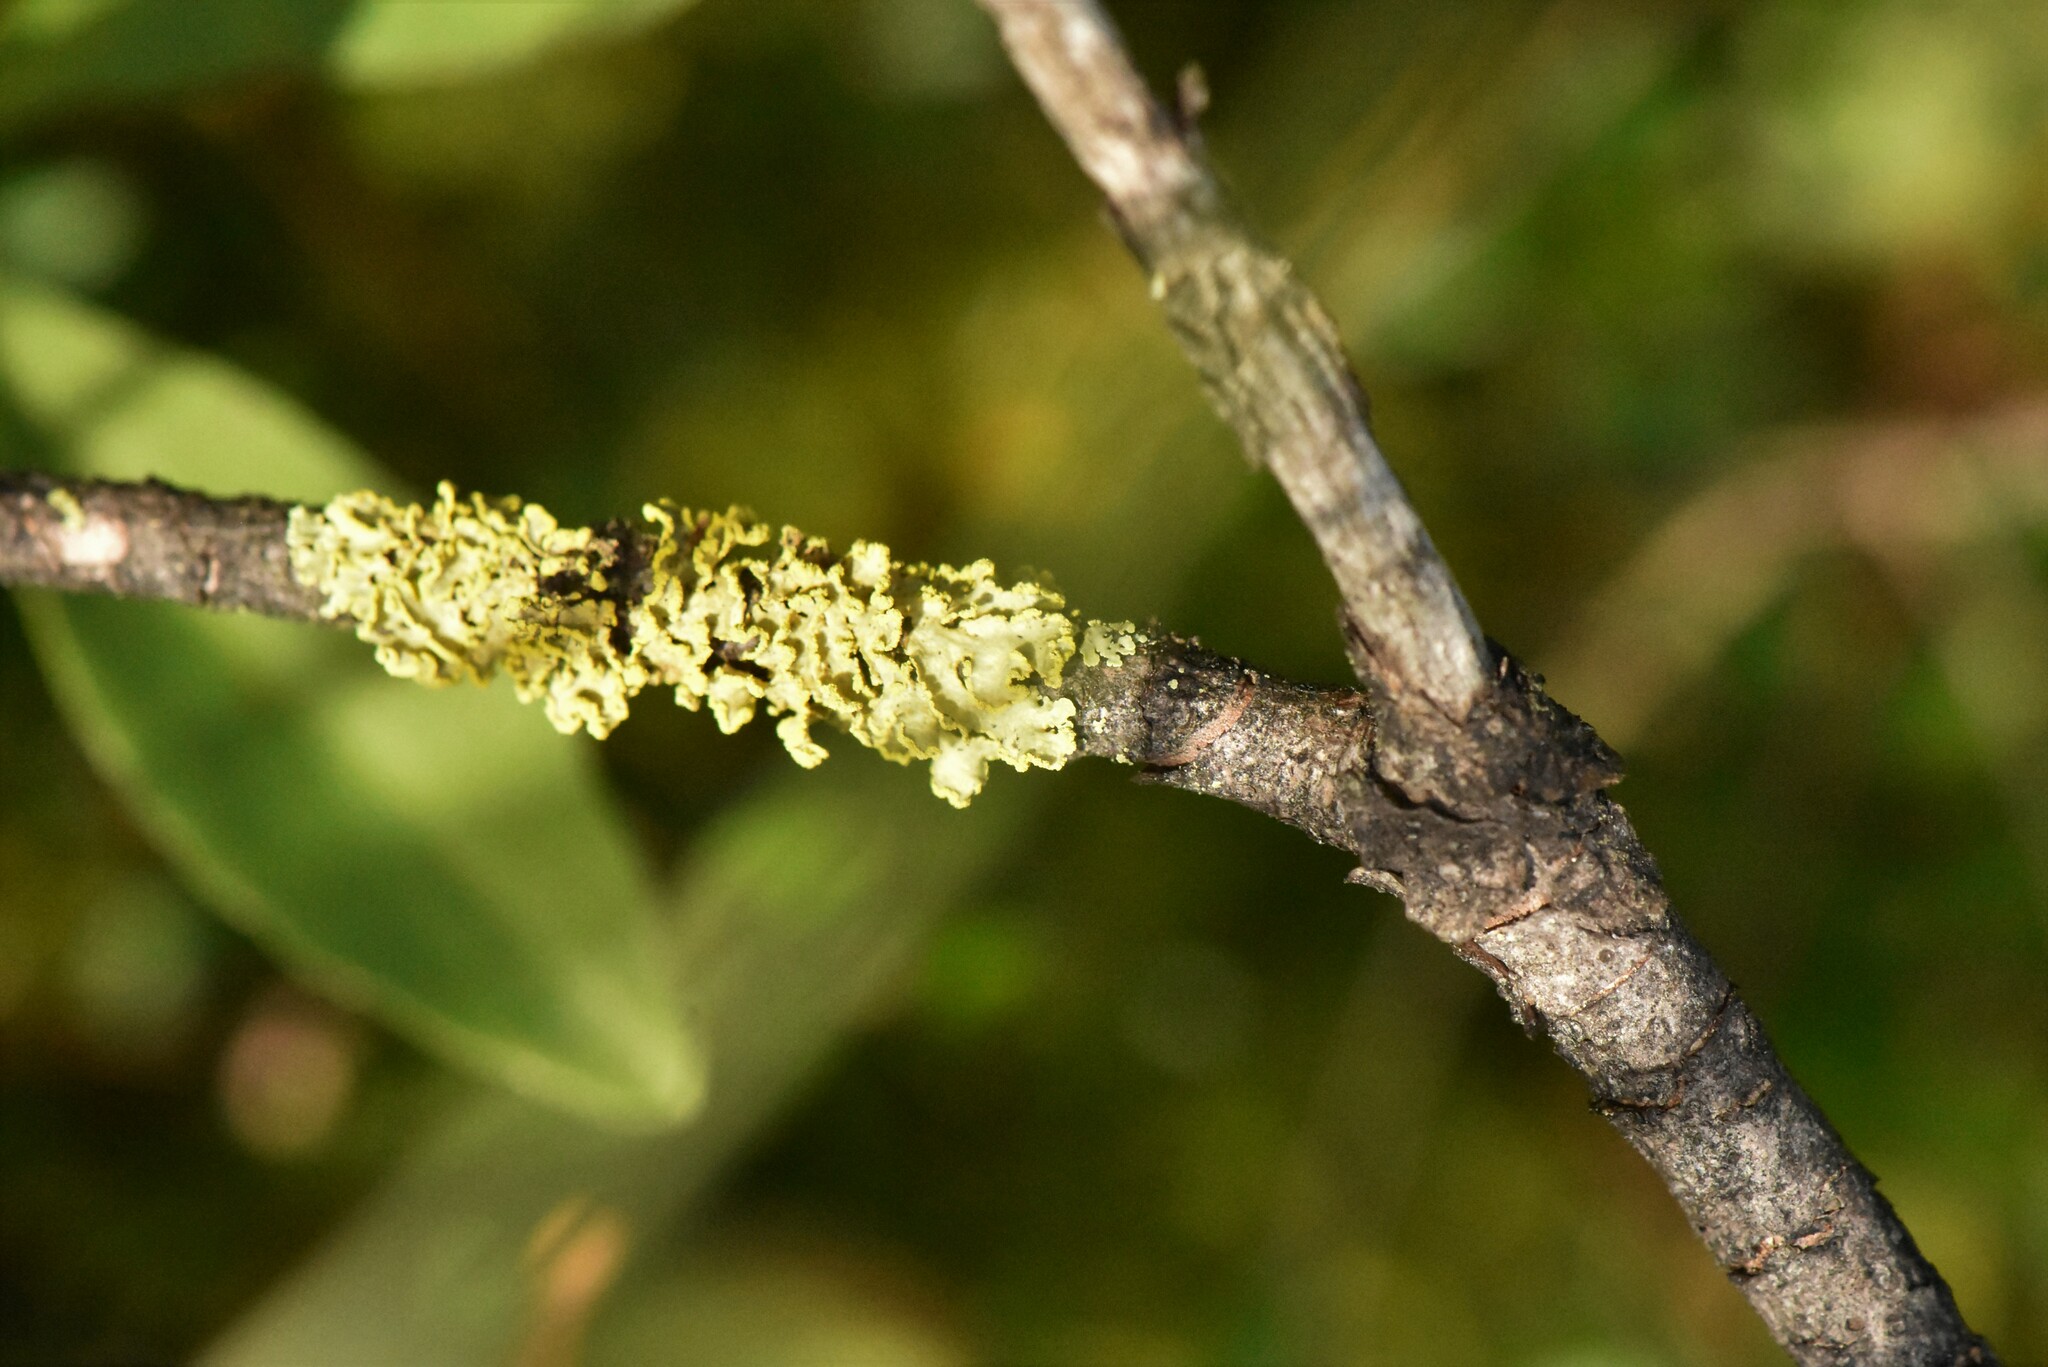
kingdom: Fungi
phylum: Ascomycota
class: Lecanoromycetes
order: Lecanorales
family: Parmeliaceae
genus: Vulpicida
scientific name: Vulpicida pinastri
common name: Powdered sunshine lichen
